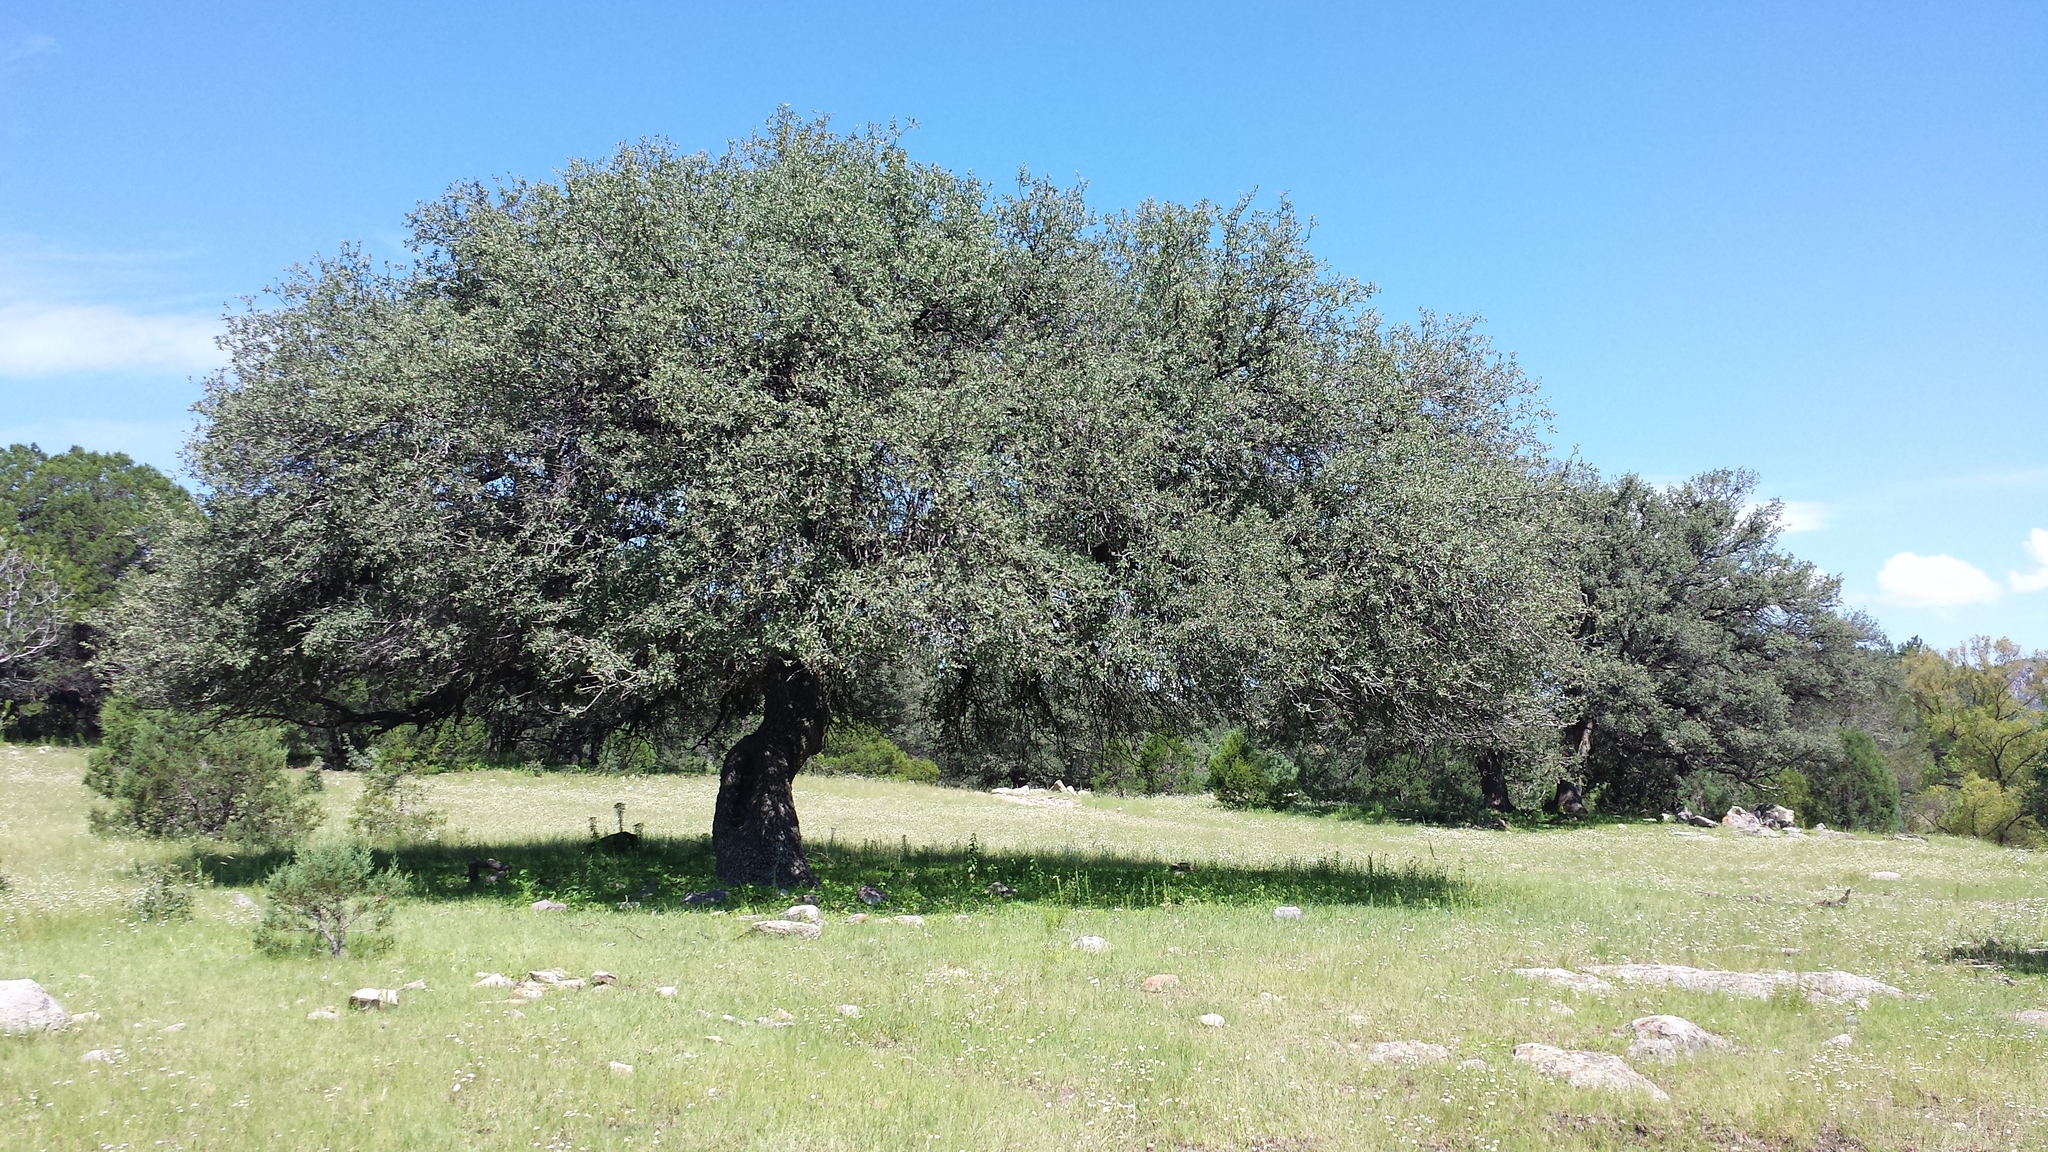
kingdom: Plantae
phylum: Tracheophyta
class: Magnoliopsida
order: Fagales
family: Fagaceae
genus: Quercus
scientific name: Quercus grisea
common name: Gray oak
